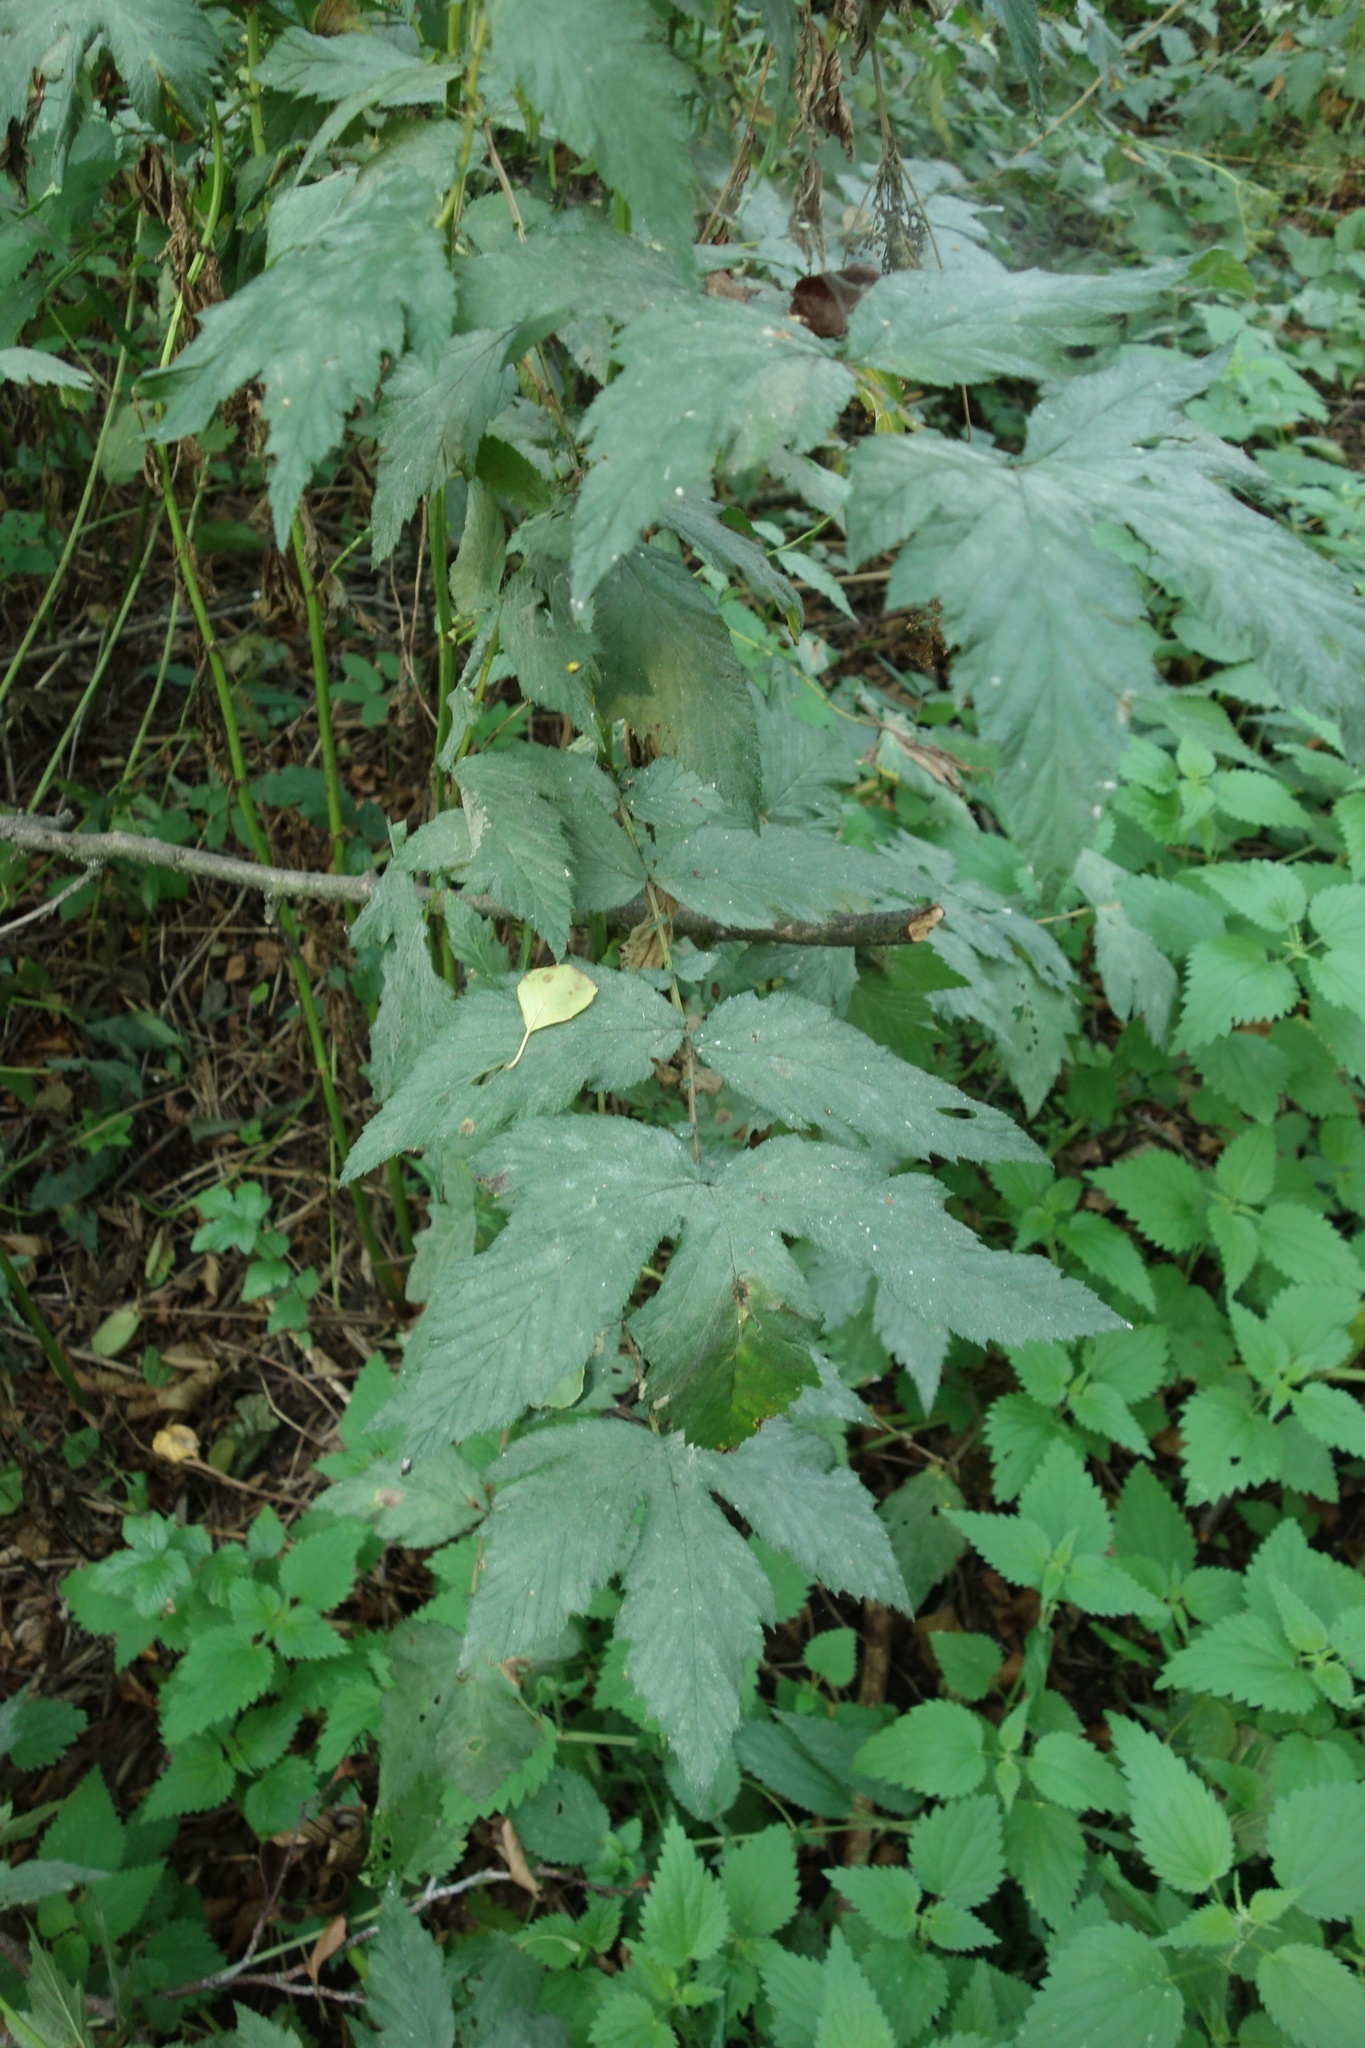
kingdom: Plantae
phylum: Tracheophyta
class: Magnoliopsida
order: Rosales
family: Rosaceae
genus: Filipendula
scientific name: Filipendula ulmaria
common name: Meadowsweet
